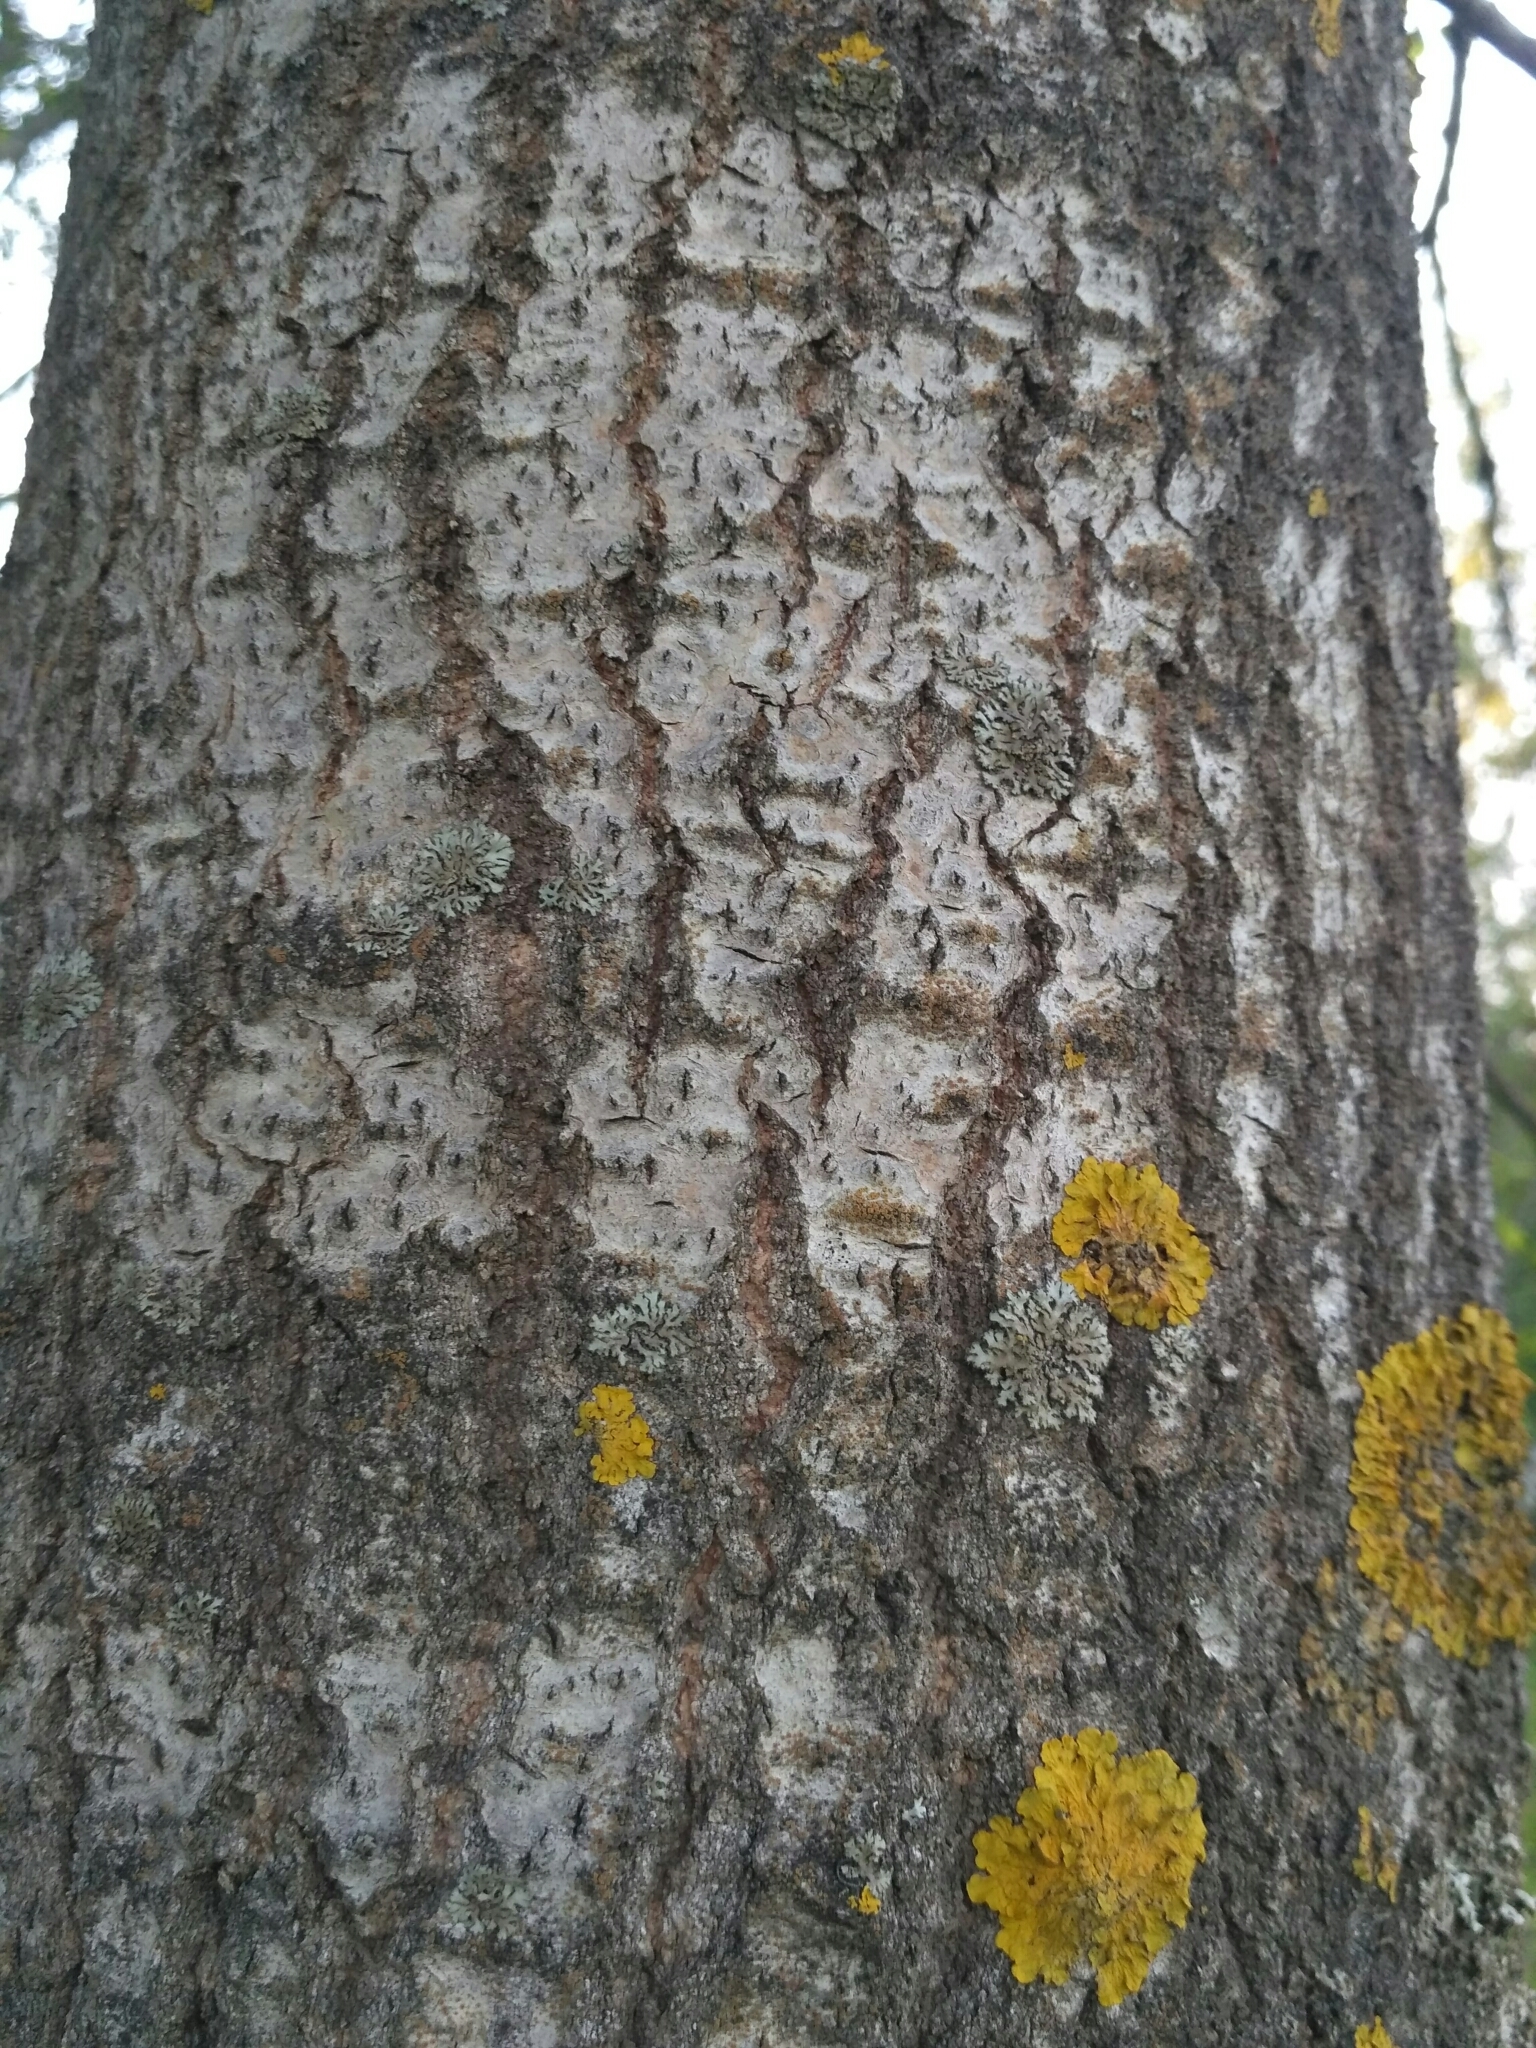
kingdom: Plantae
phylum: Tracheophyta
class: Magnoliopsida
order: Malpighiales
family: Salicaceae
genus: Populus
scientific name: Populus tremula
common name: European aspen
